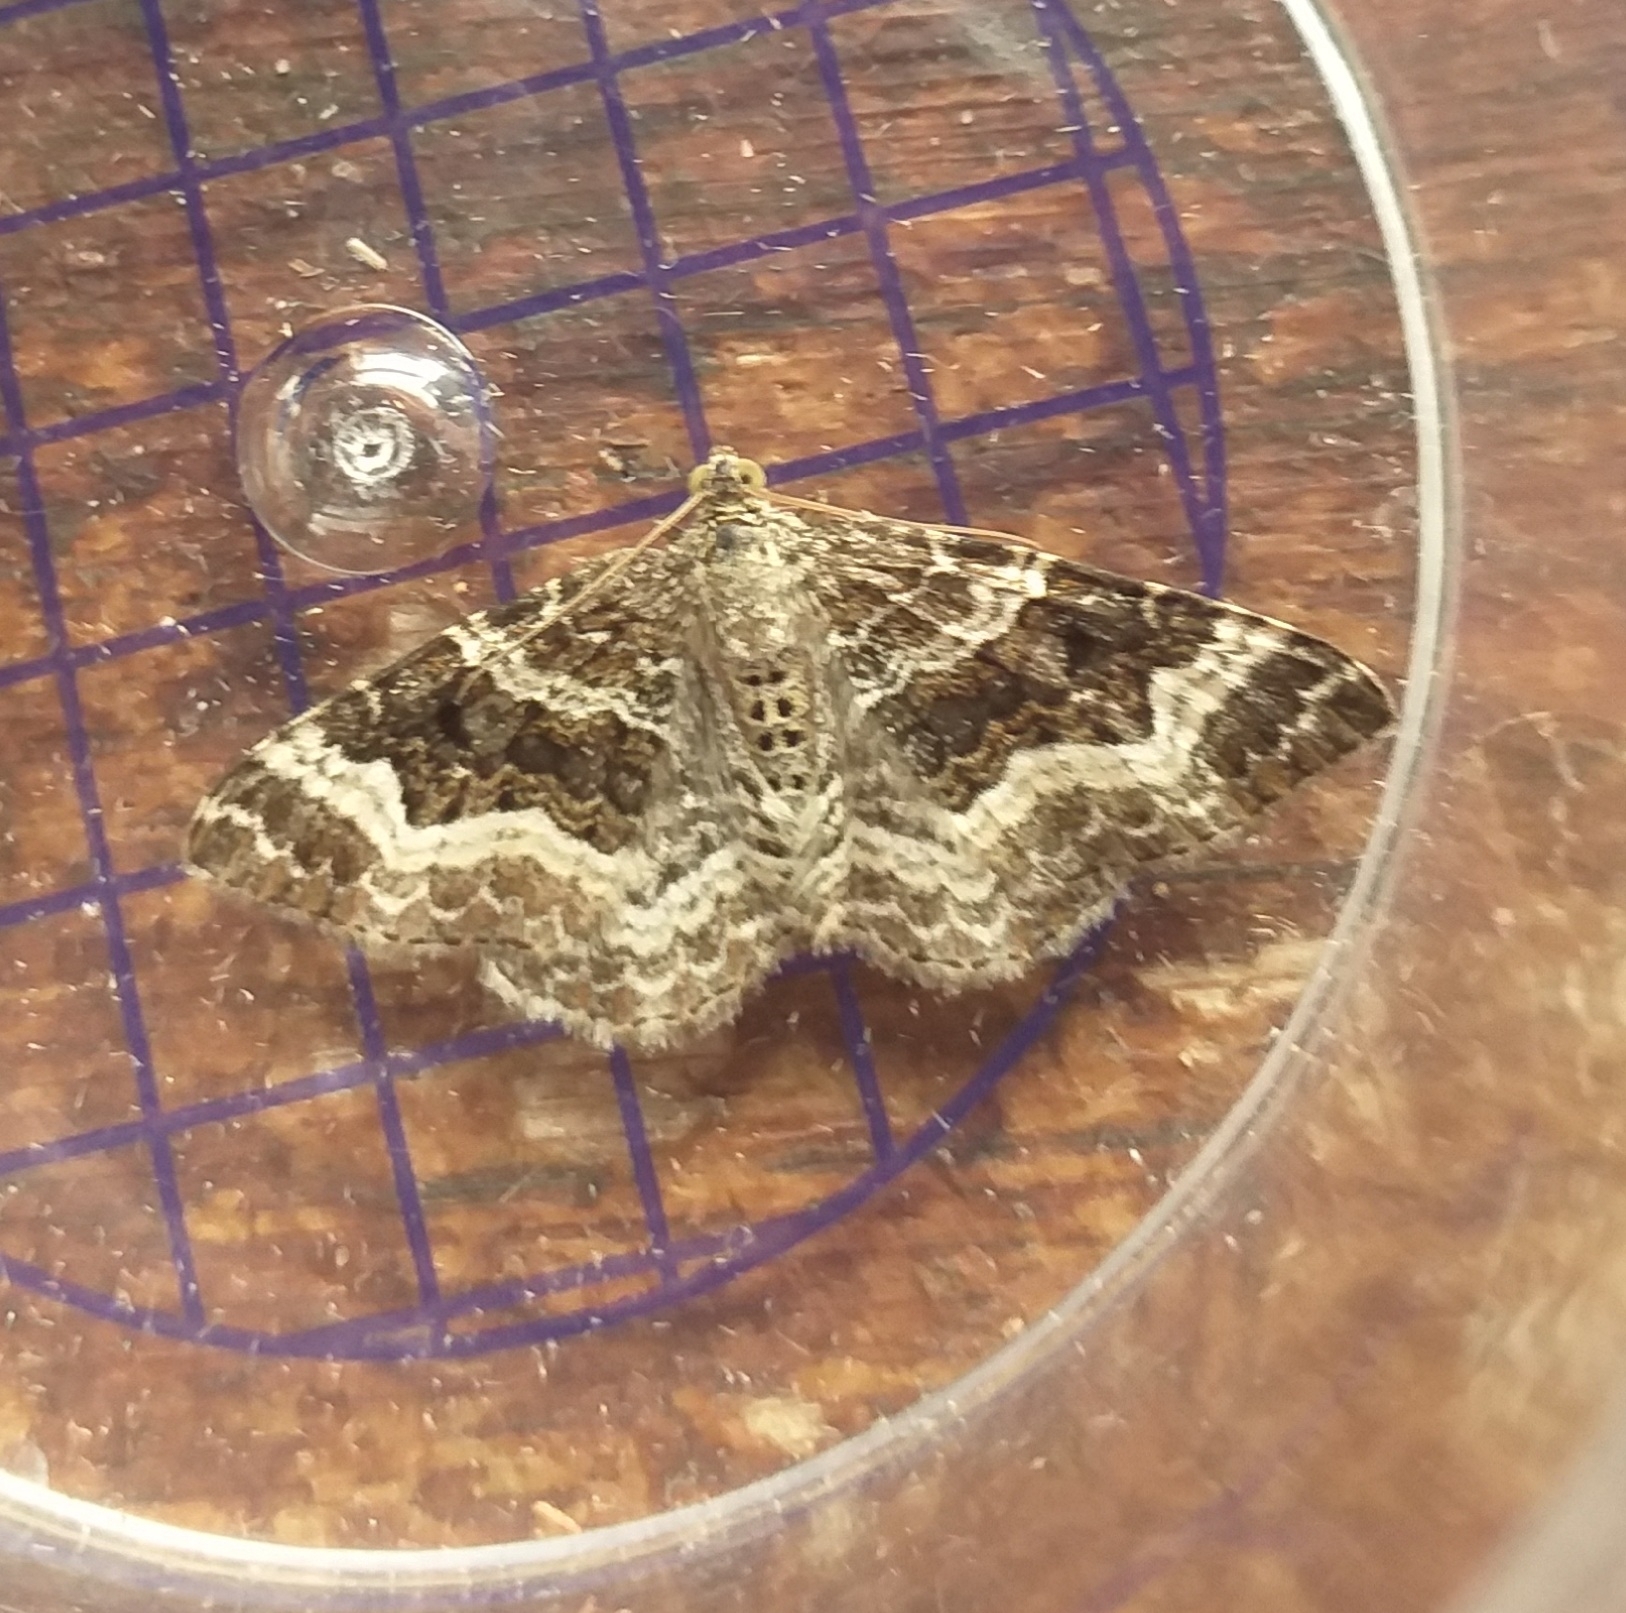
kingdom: Animalia
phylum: Arthropoda
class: Insecta
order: Lepidoptera
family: Geometridae
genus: Epirrhoe
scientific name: Epirrhoe alternata
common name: Common carpet
